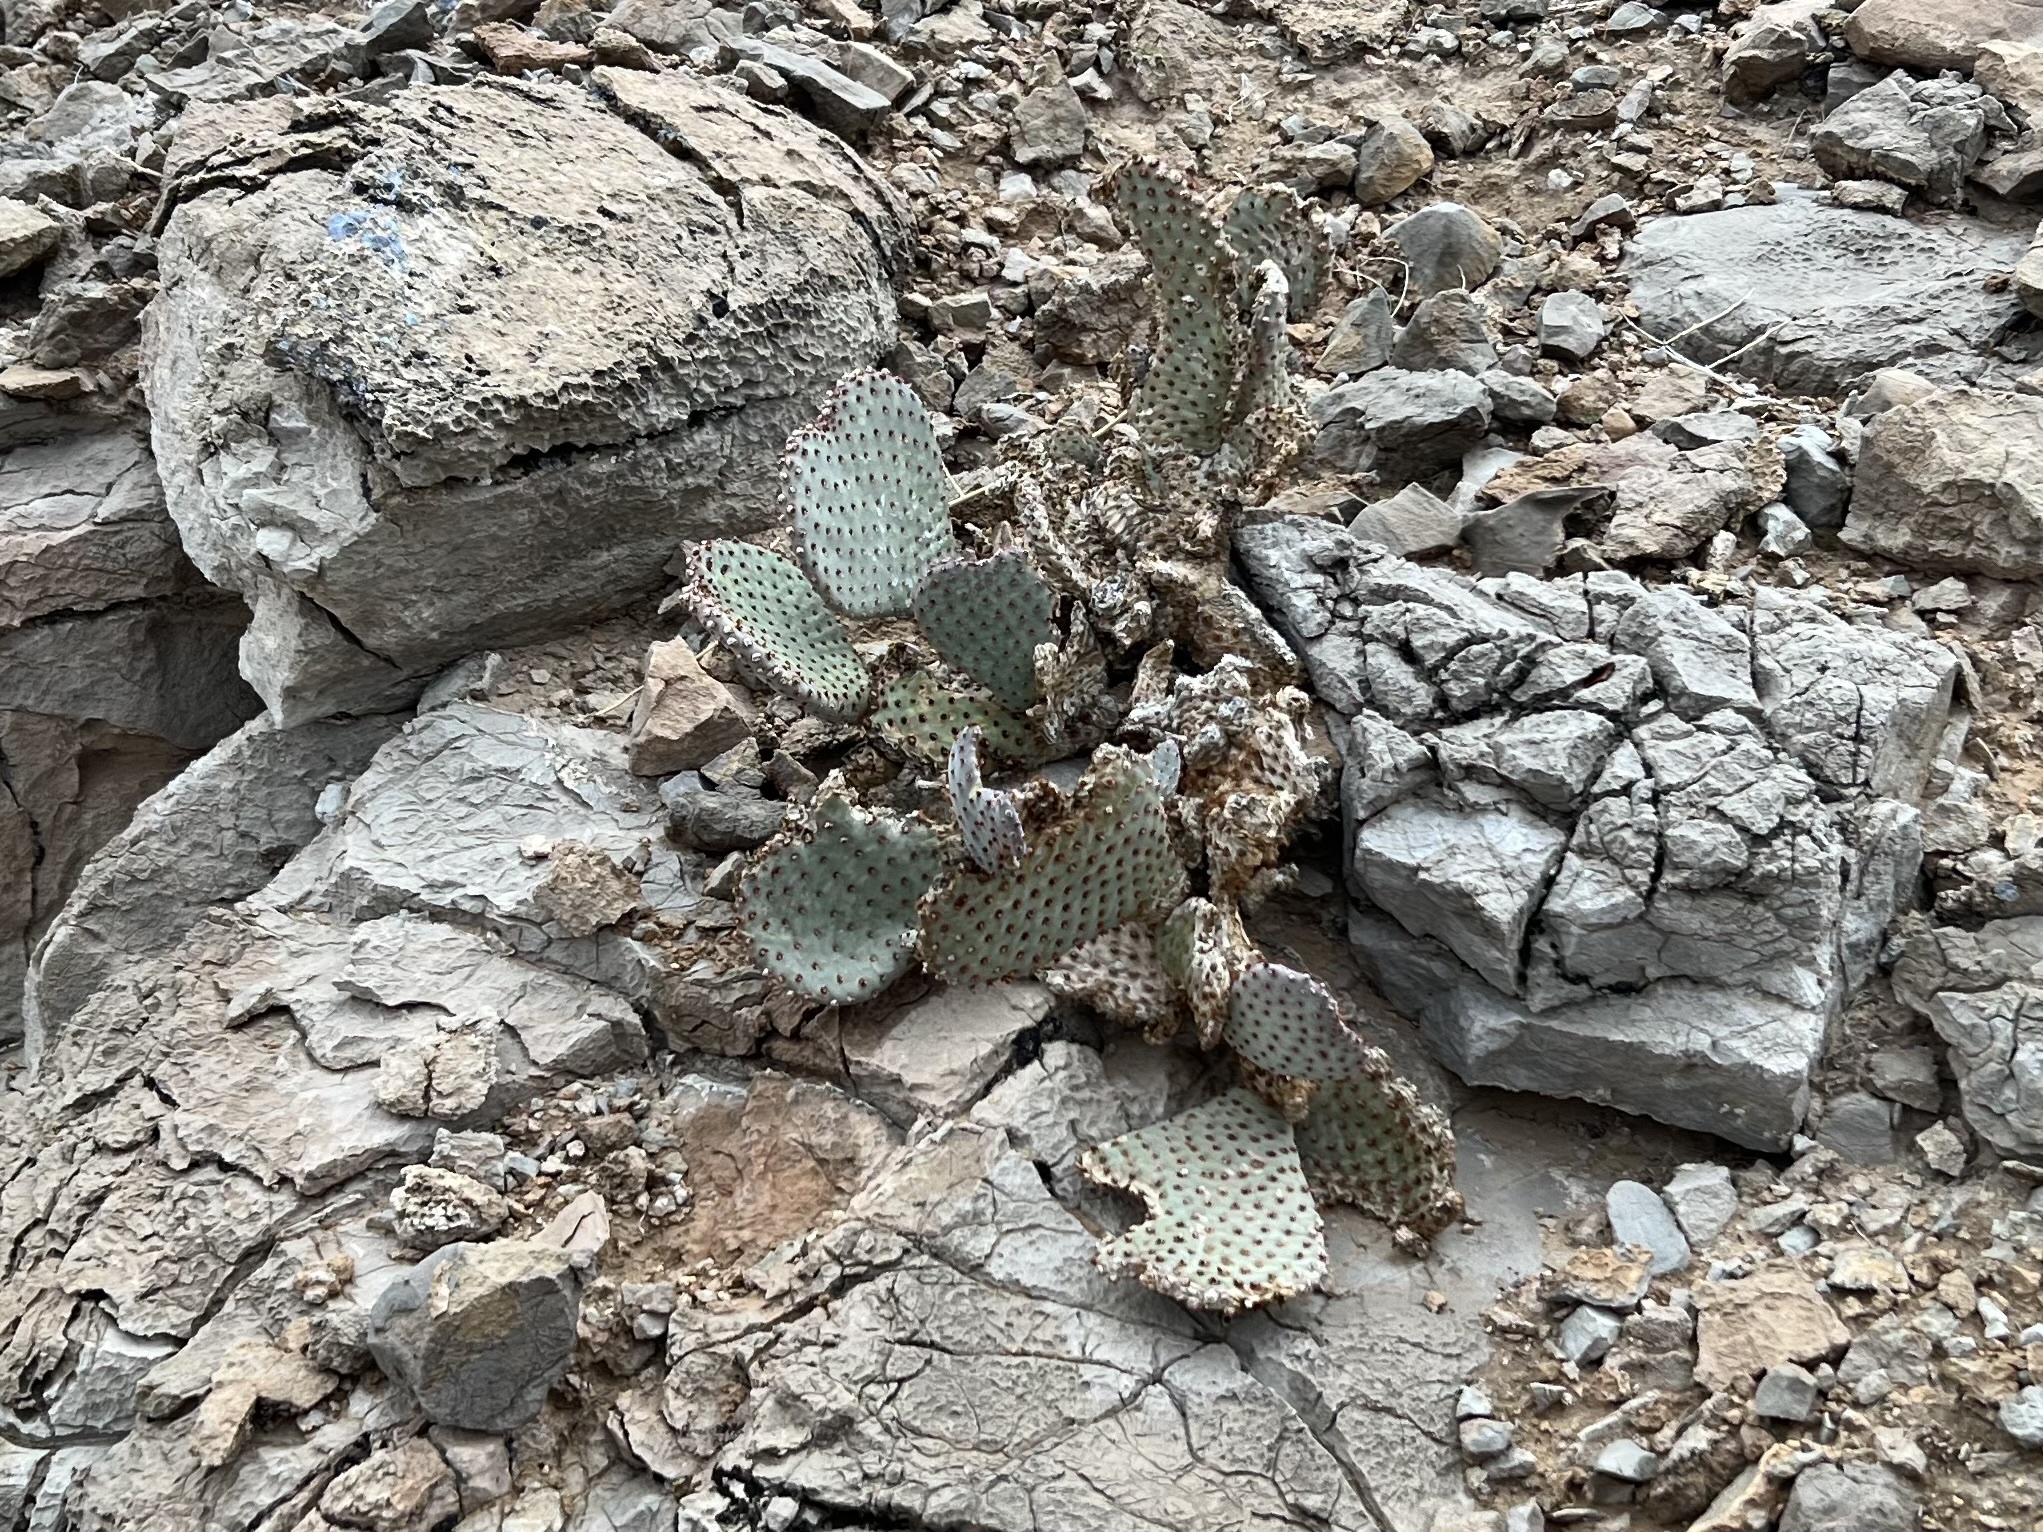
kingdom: Plantae
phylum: Tracheophyta
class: Magnoliopsida
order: Caryophyllales
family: Cactaceae
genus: Opuntia
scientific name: Opuntia basilaris
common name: Beavertail prickly-pear
